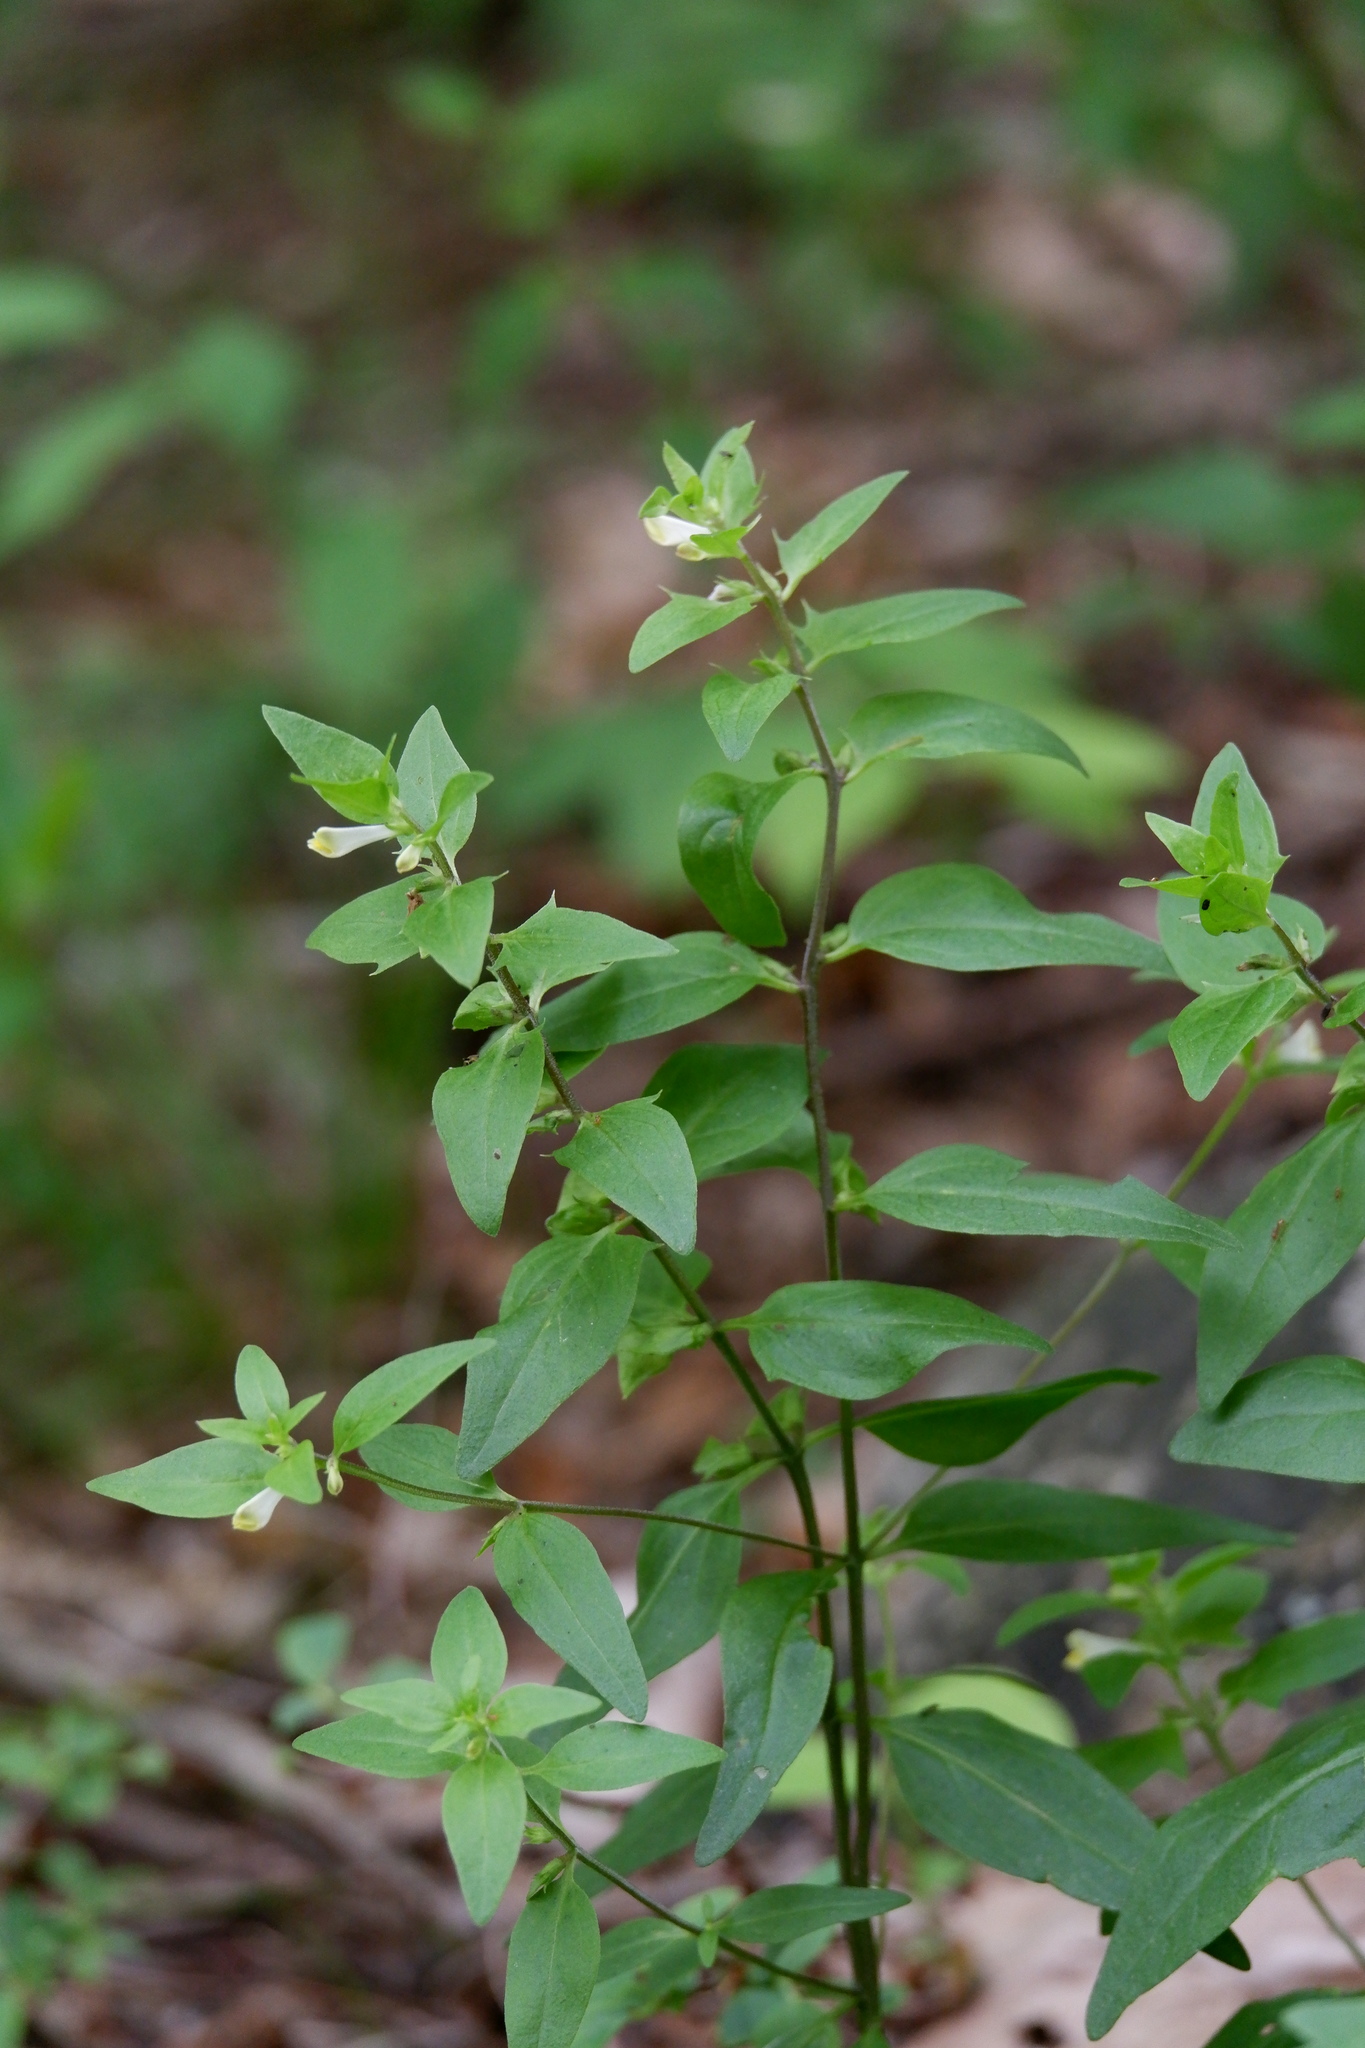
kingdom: Plantae
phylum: Tracheophyta
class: Magnoliopsida
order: Lamiales
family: Orobanchaceae
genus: Melampyrum
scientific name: Melampyrum lineare
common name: American cow-wheat
